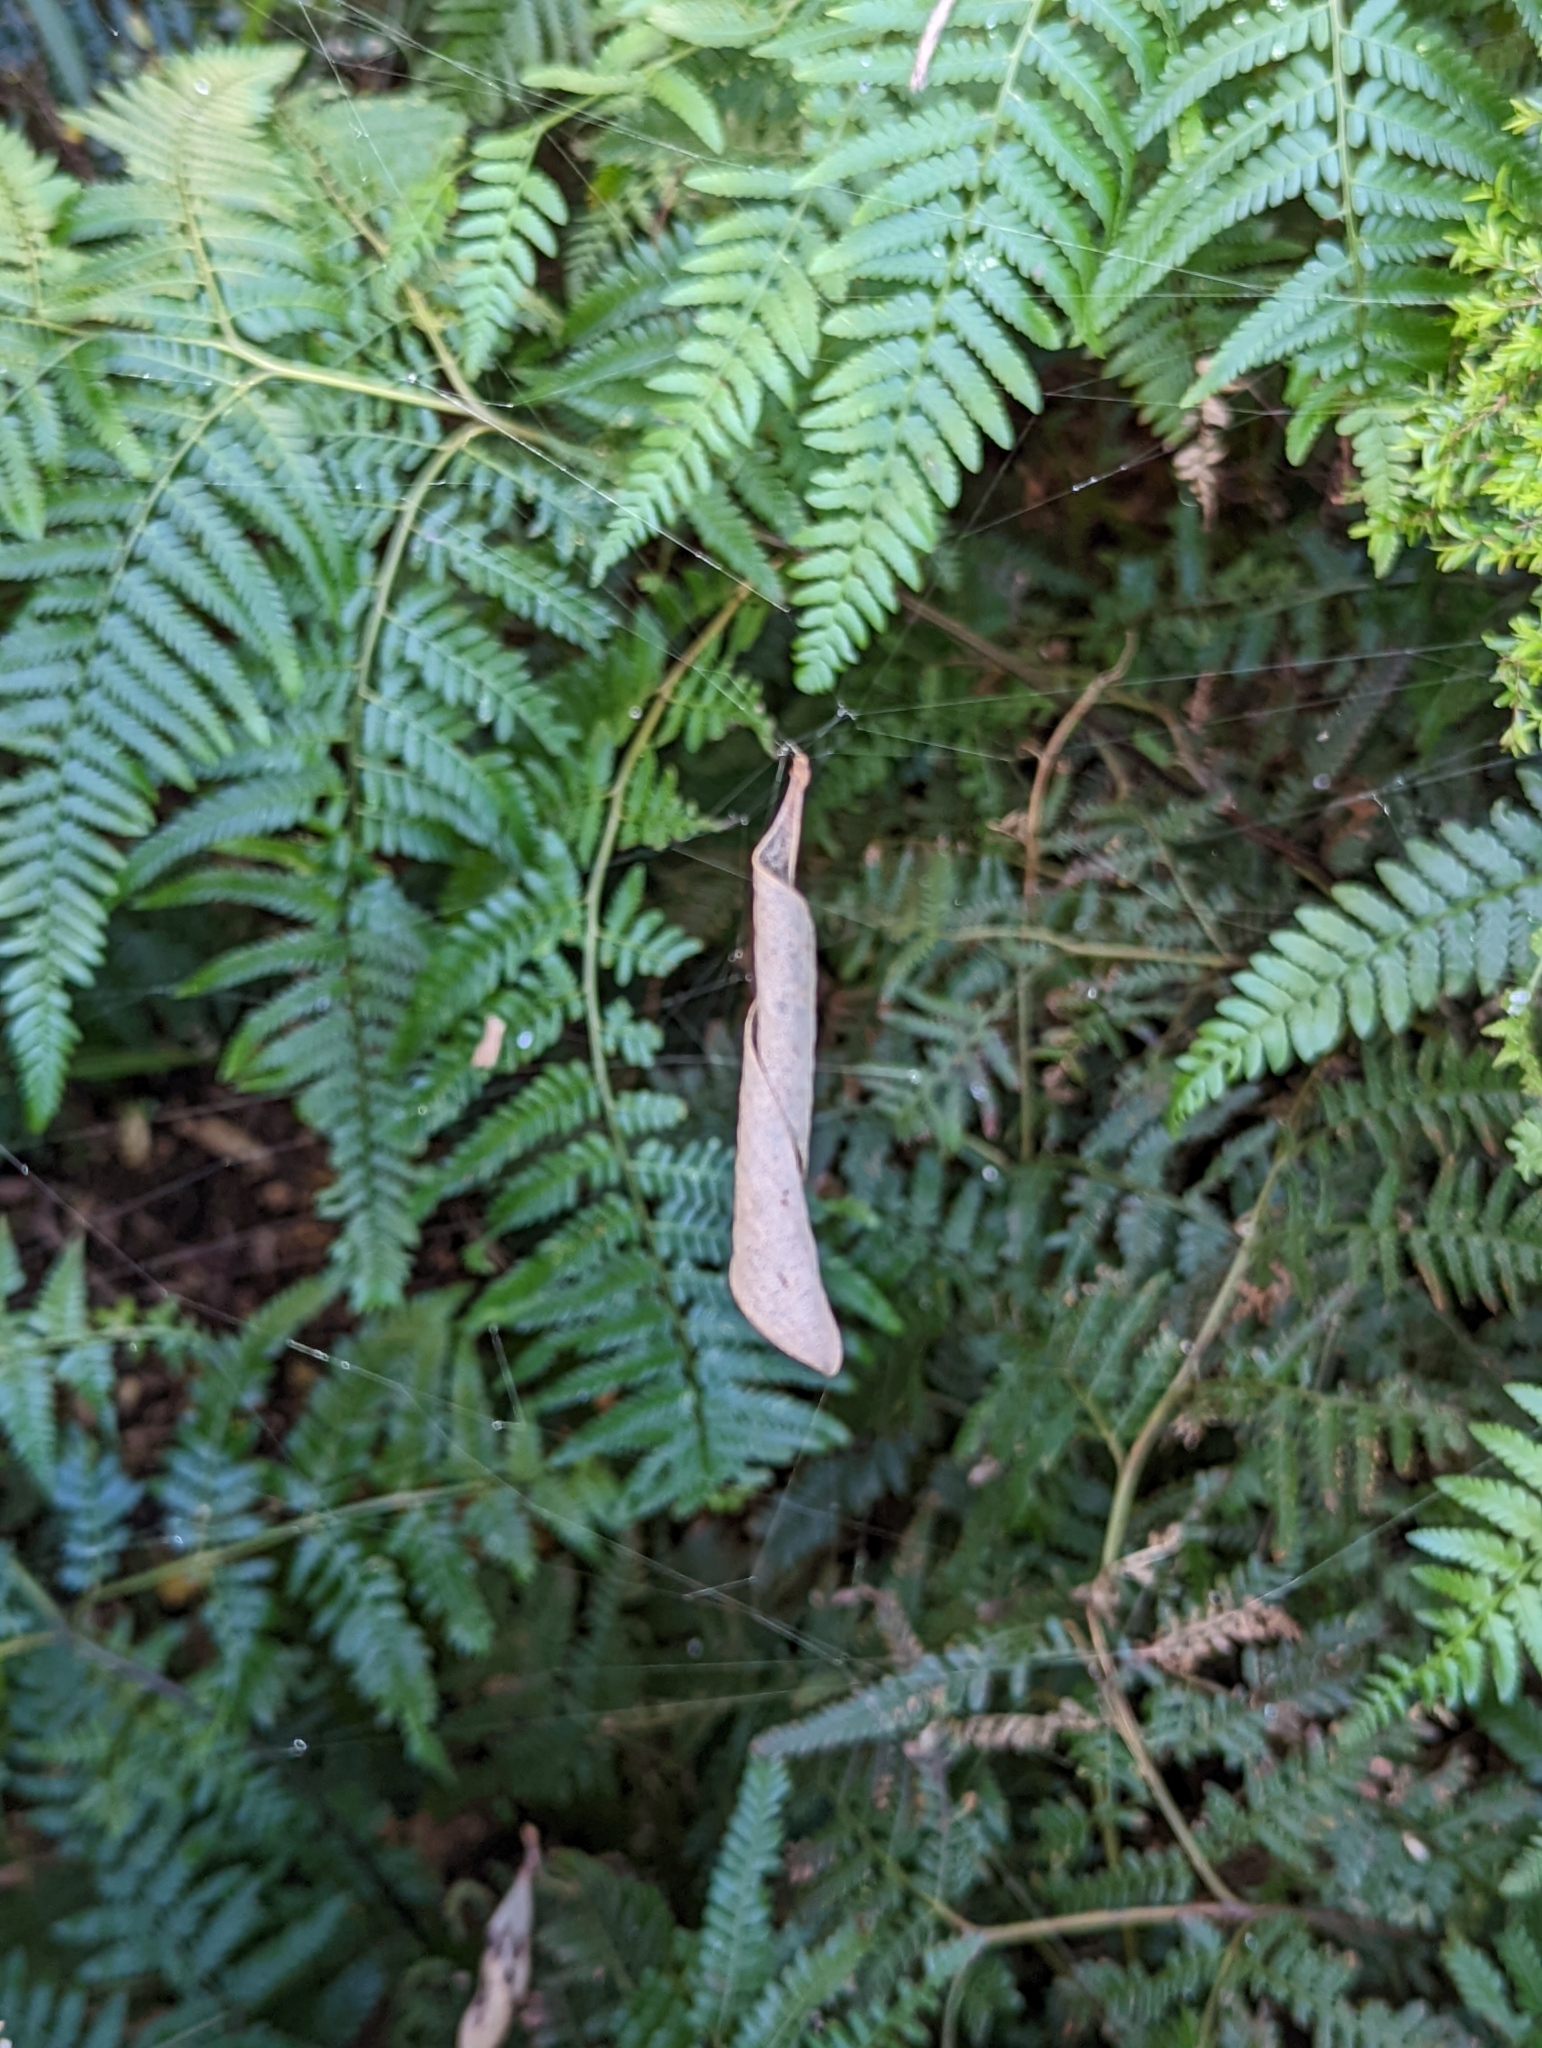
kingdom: Animalia
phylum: Arthropoda
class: Arachnida
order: Araneae
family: Araneidae
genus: Phonognatha
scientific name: Phonognatha graeffei
